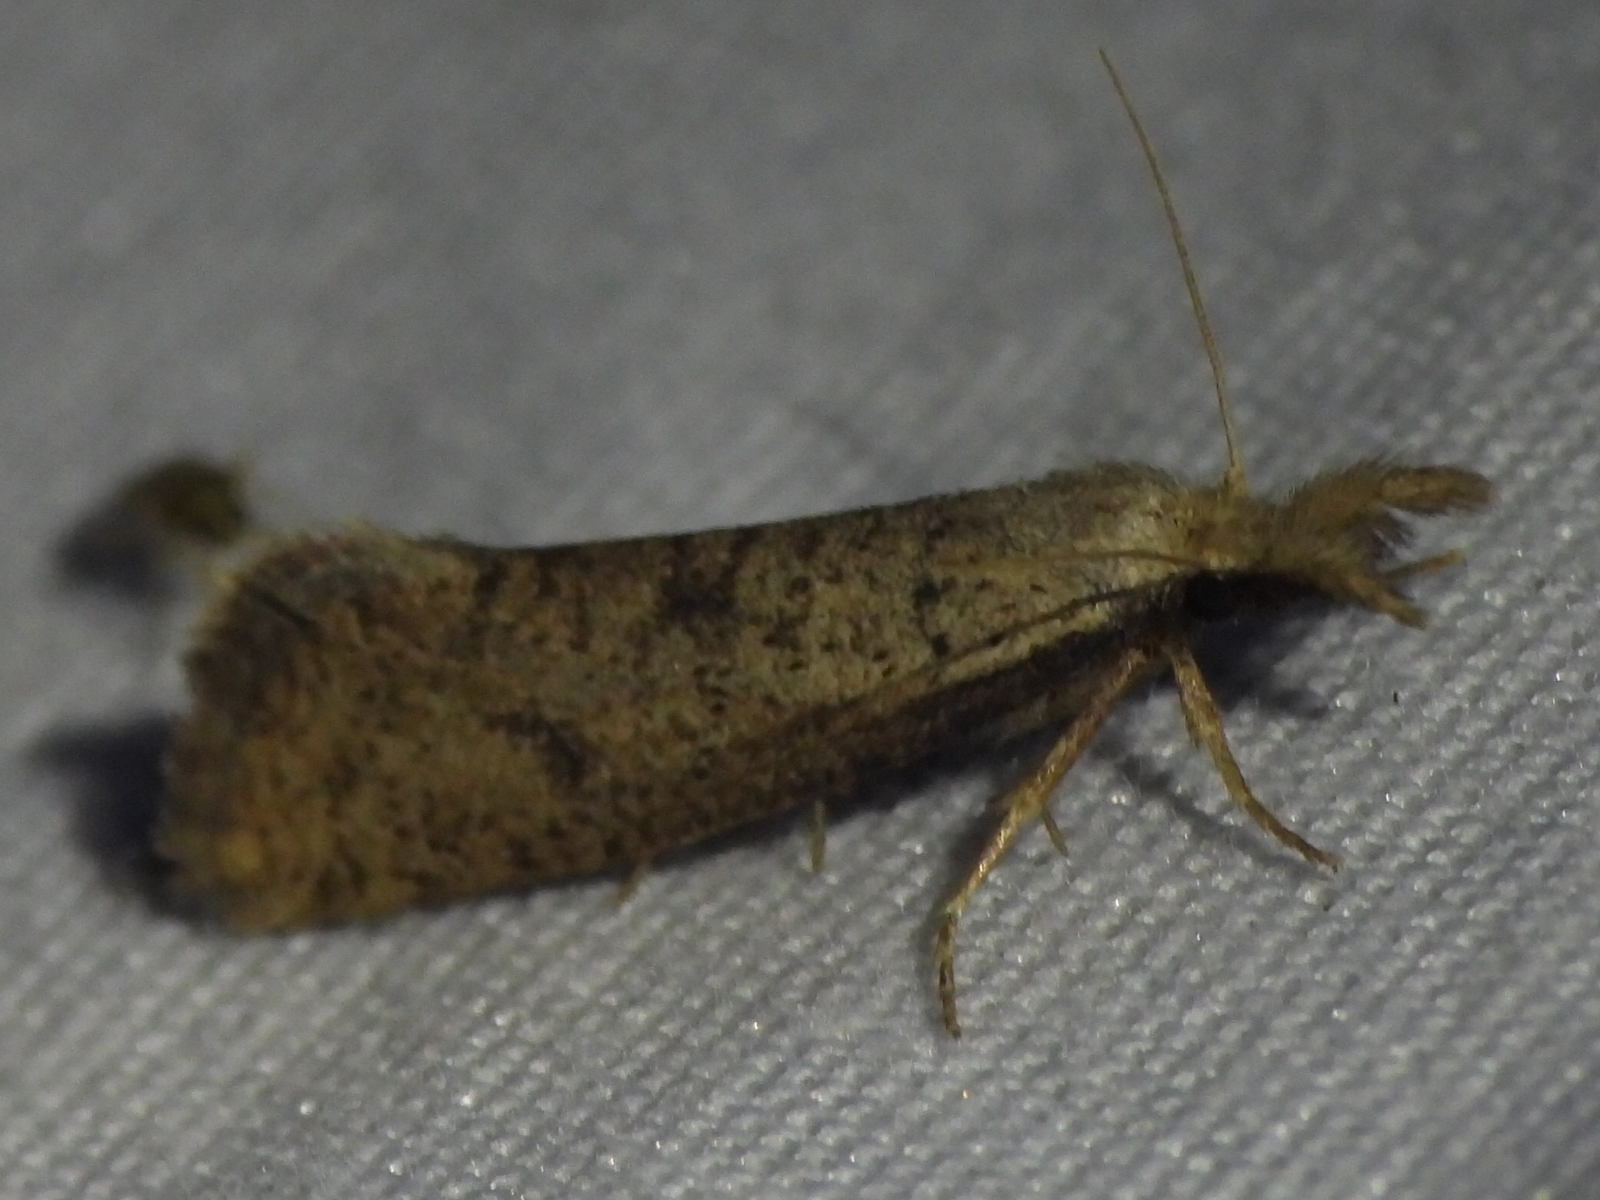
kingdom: Animalia
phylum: Arthropoda
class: Insecta
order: Lepidoptera
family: Tineidae
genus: Acrolophus
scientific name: Acrolophus mortipennella
